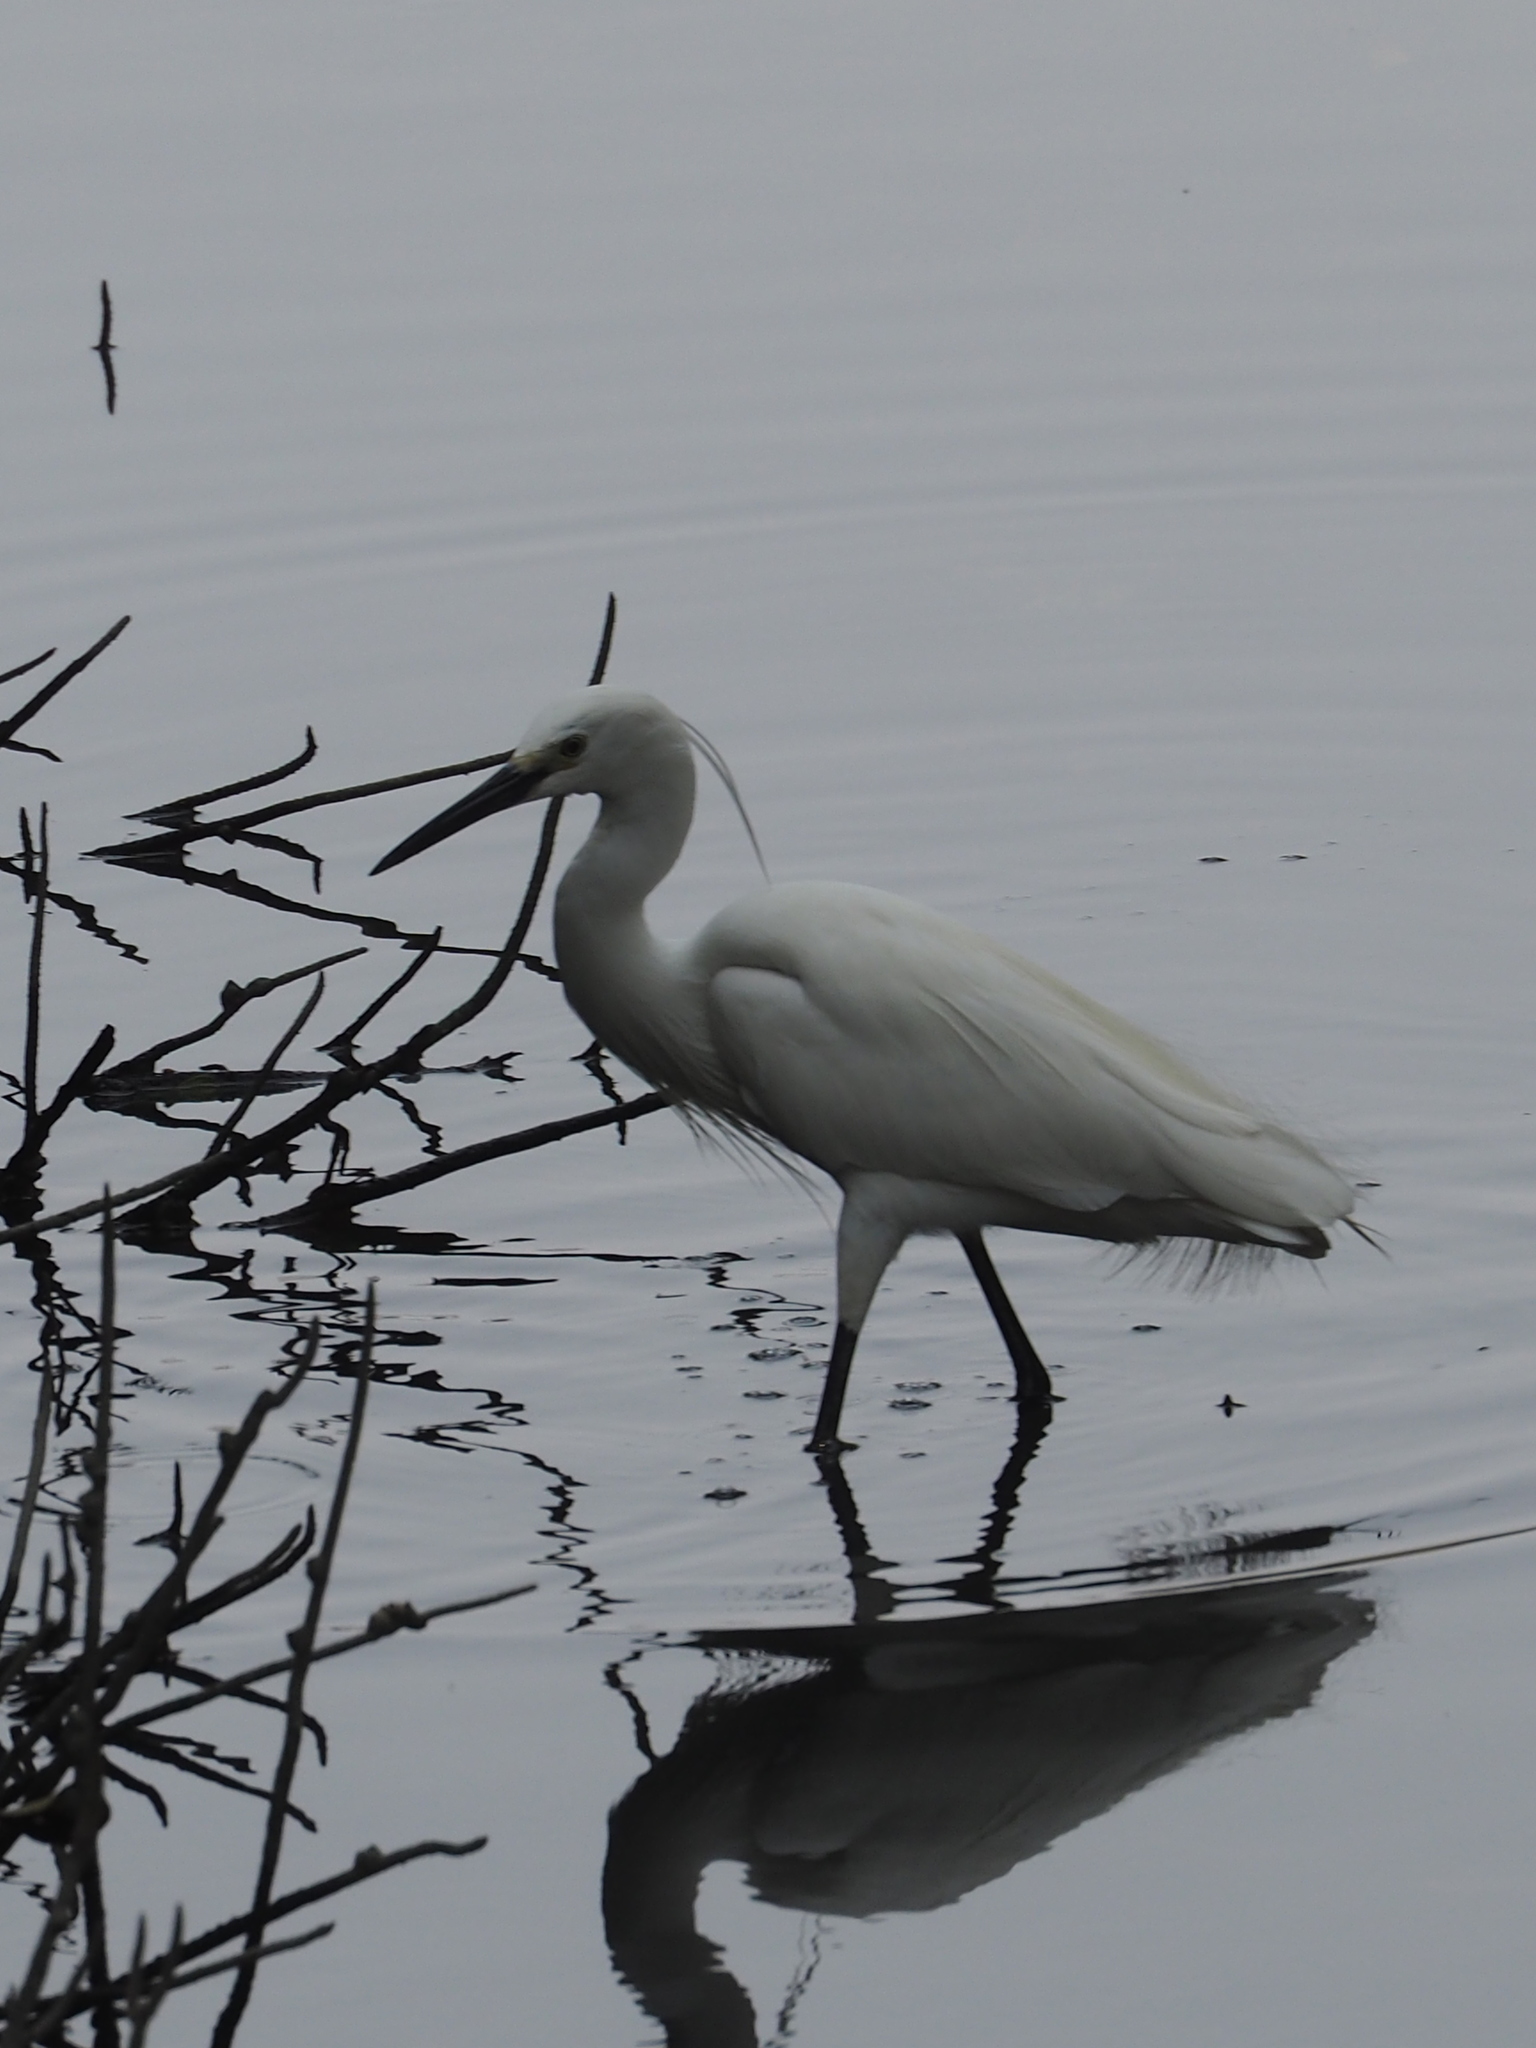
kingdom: Animalia
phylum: Chordata
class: Aves
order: Pelecaniformes
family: Ardeidae
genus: Egretta
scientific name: Egretta garzetta
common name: Little egret
